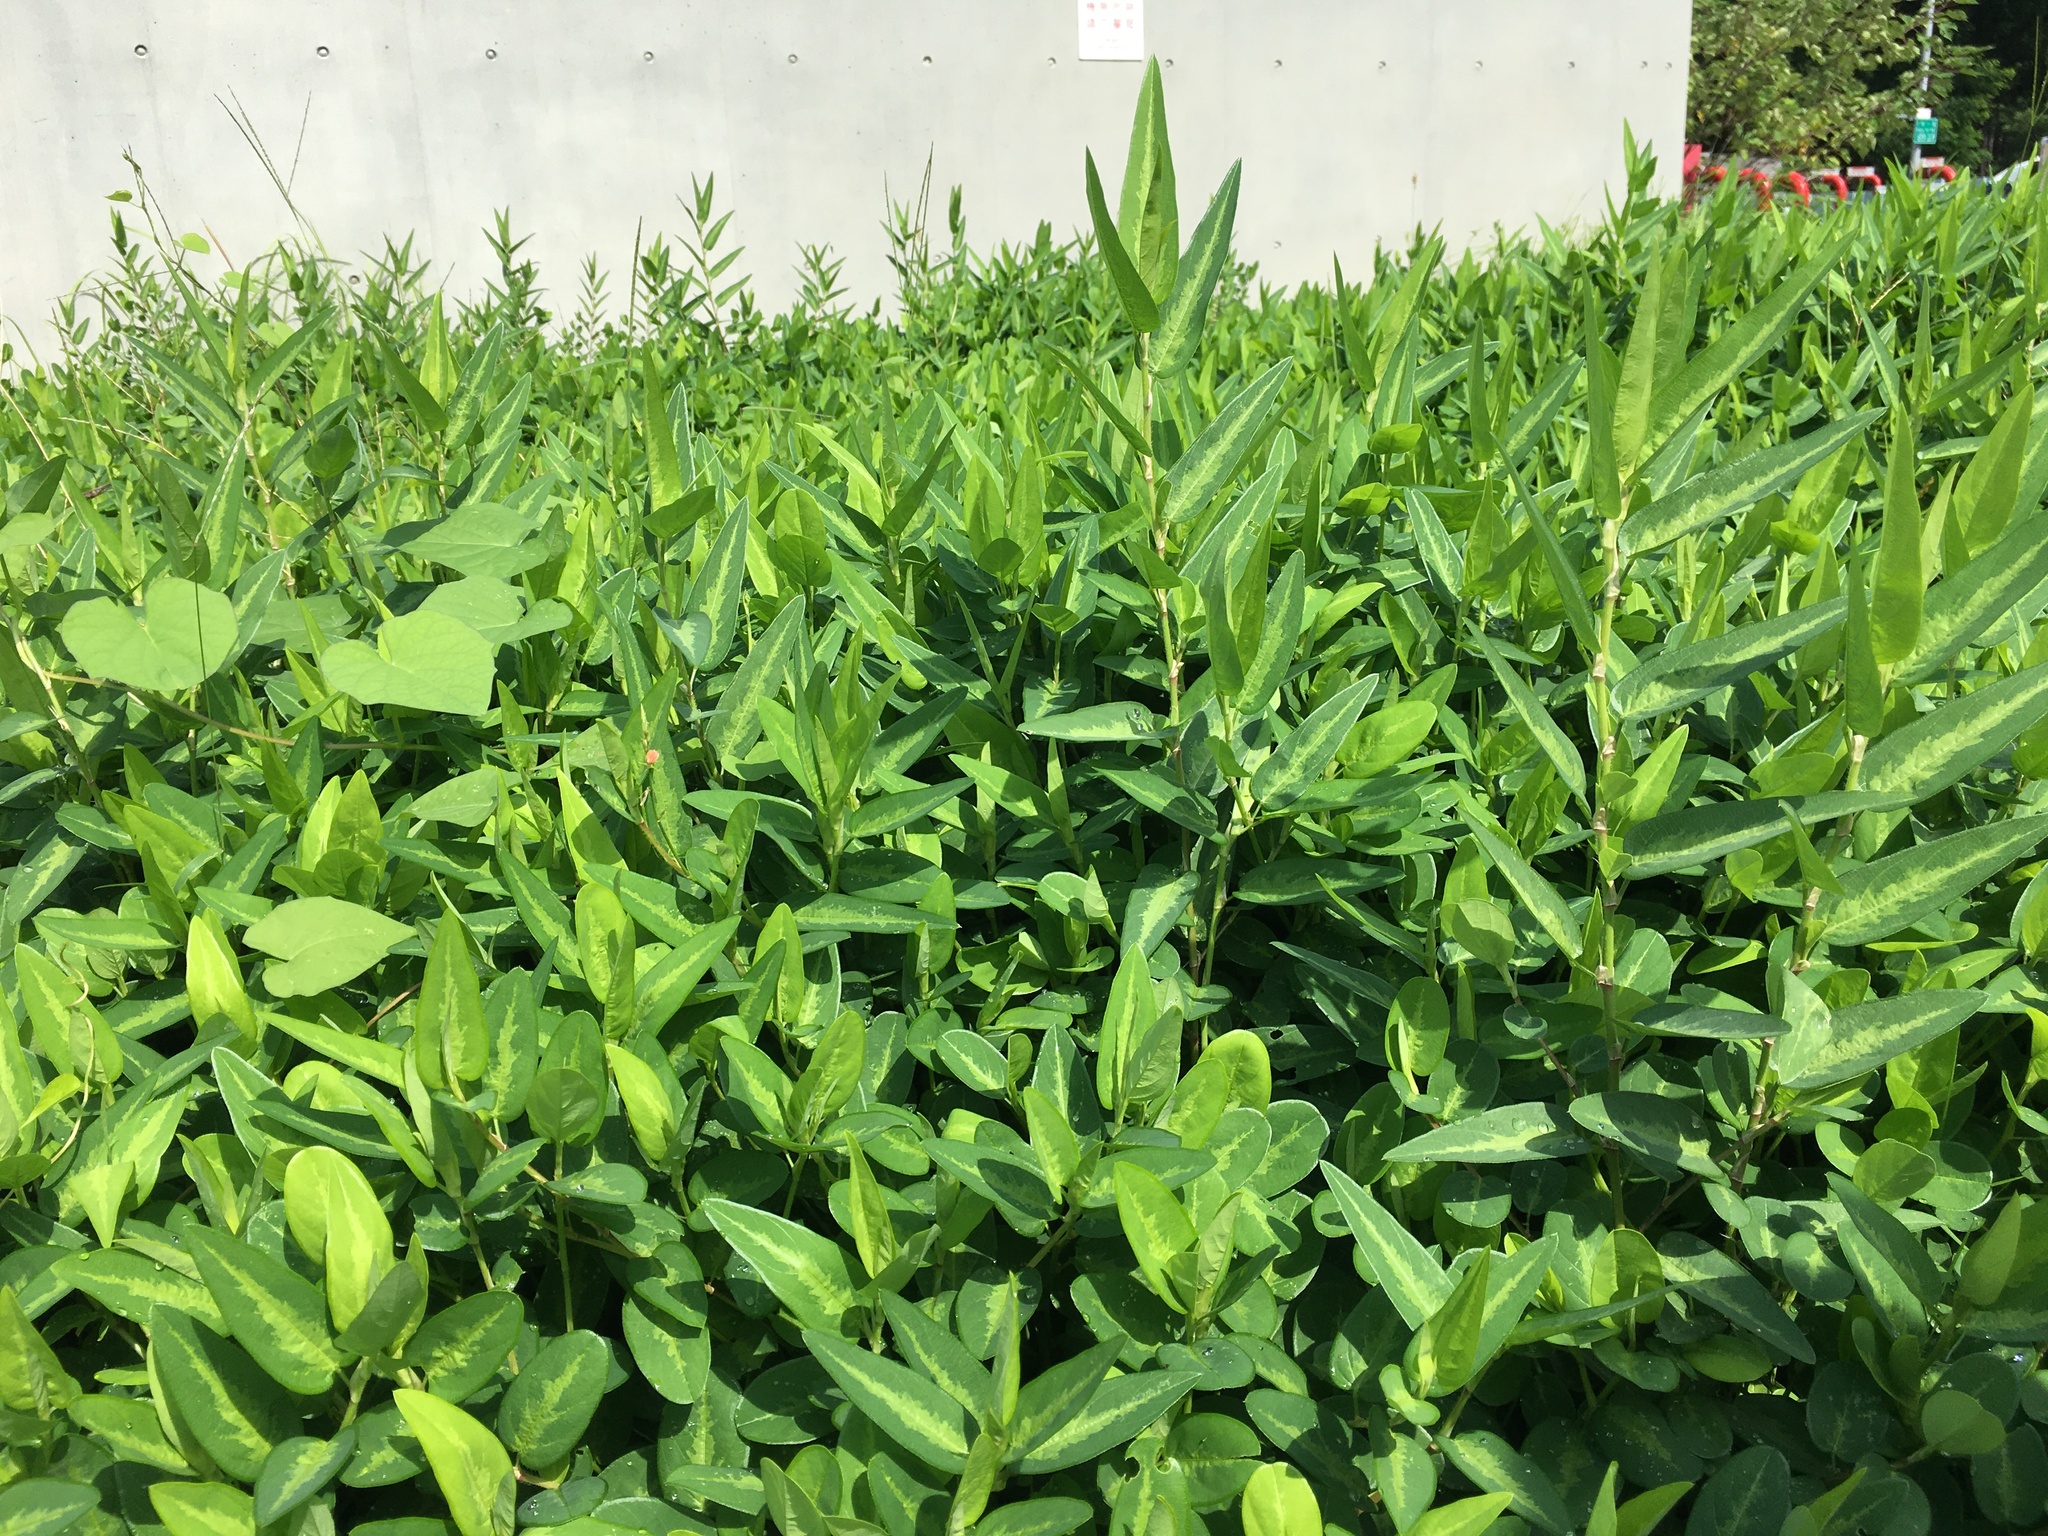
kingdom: Plantae
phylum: Tracheophyta
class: Magnoliopsida
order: Fabales
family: Fabaceae
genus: Alysicarpus
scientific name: Alysicarpus ovalifolius
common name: Alyce clover
